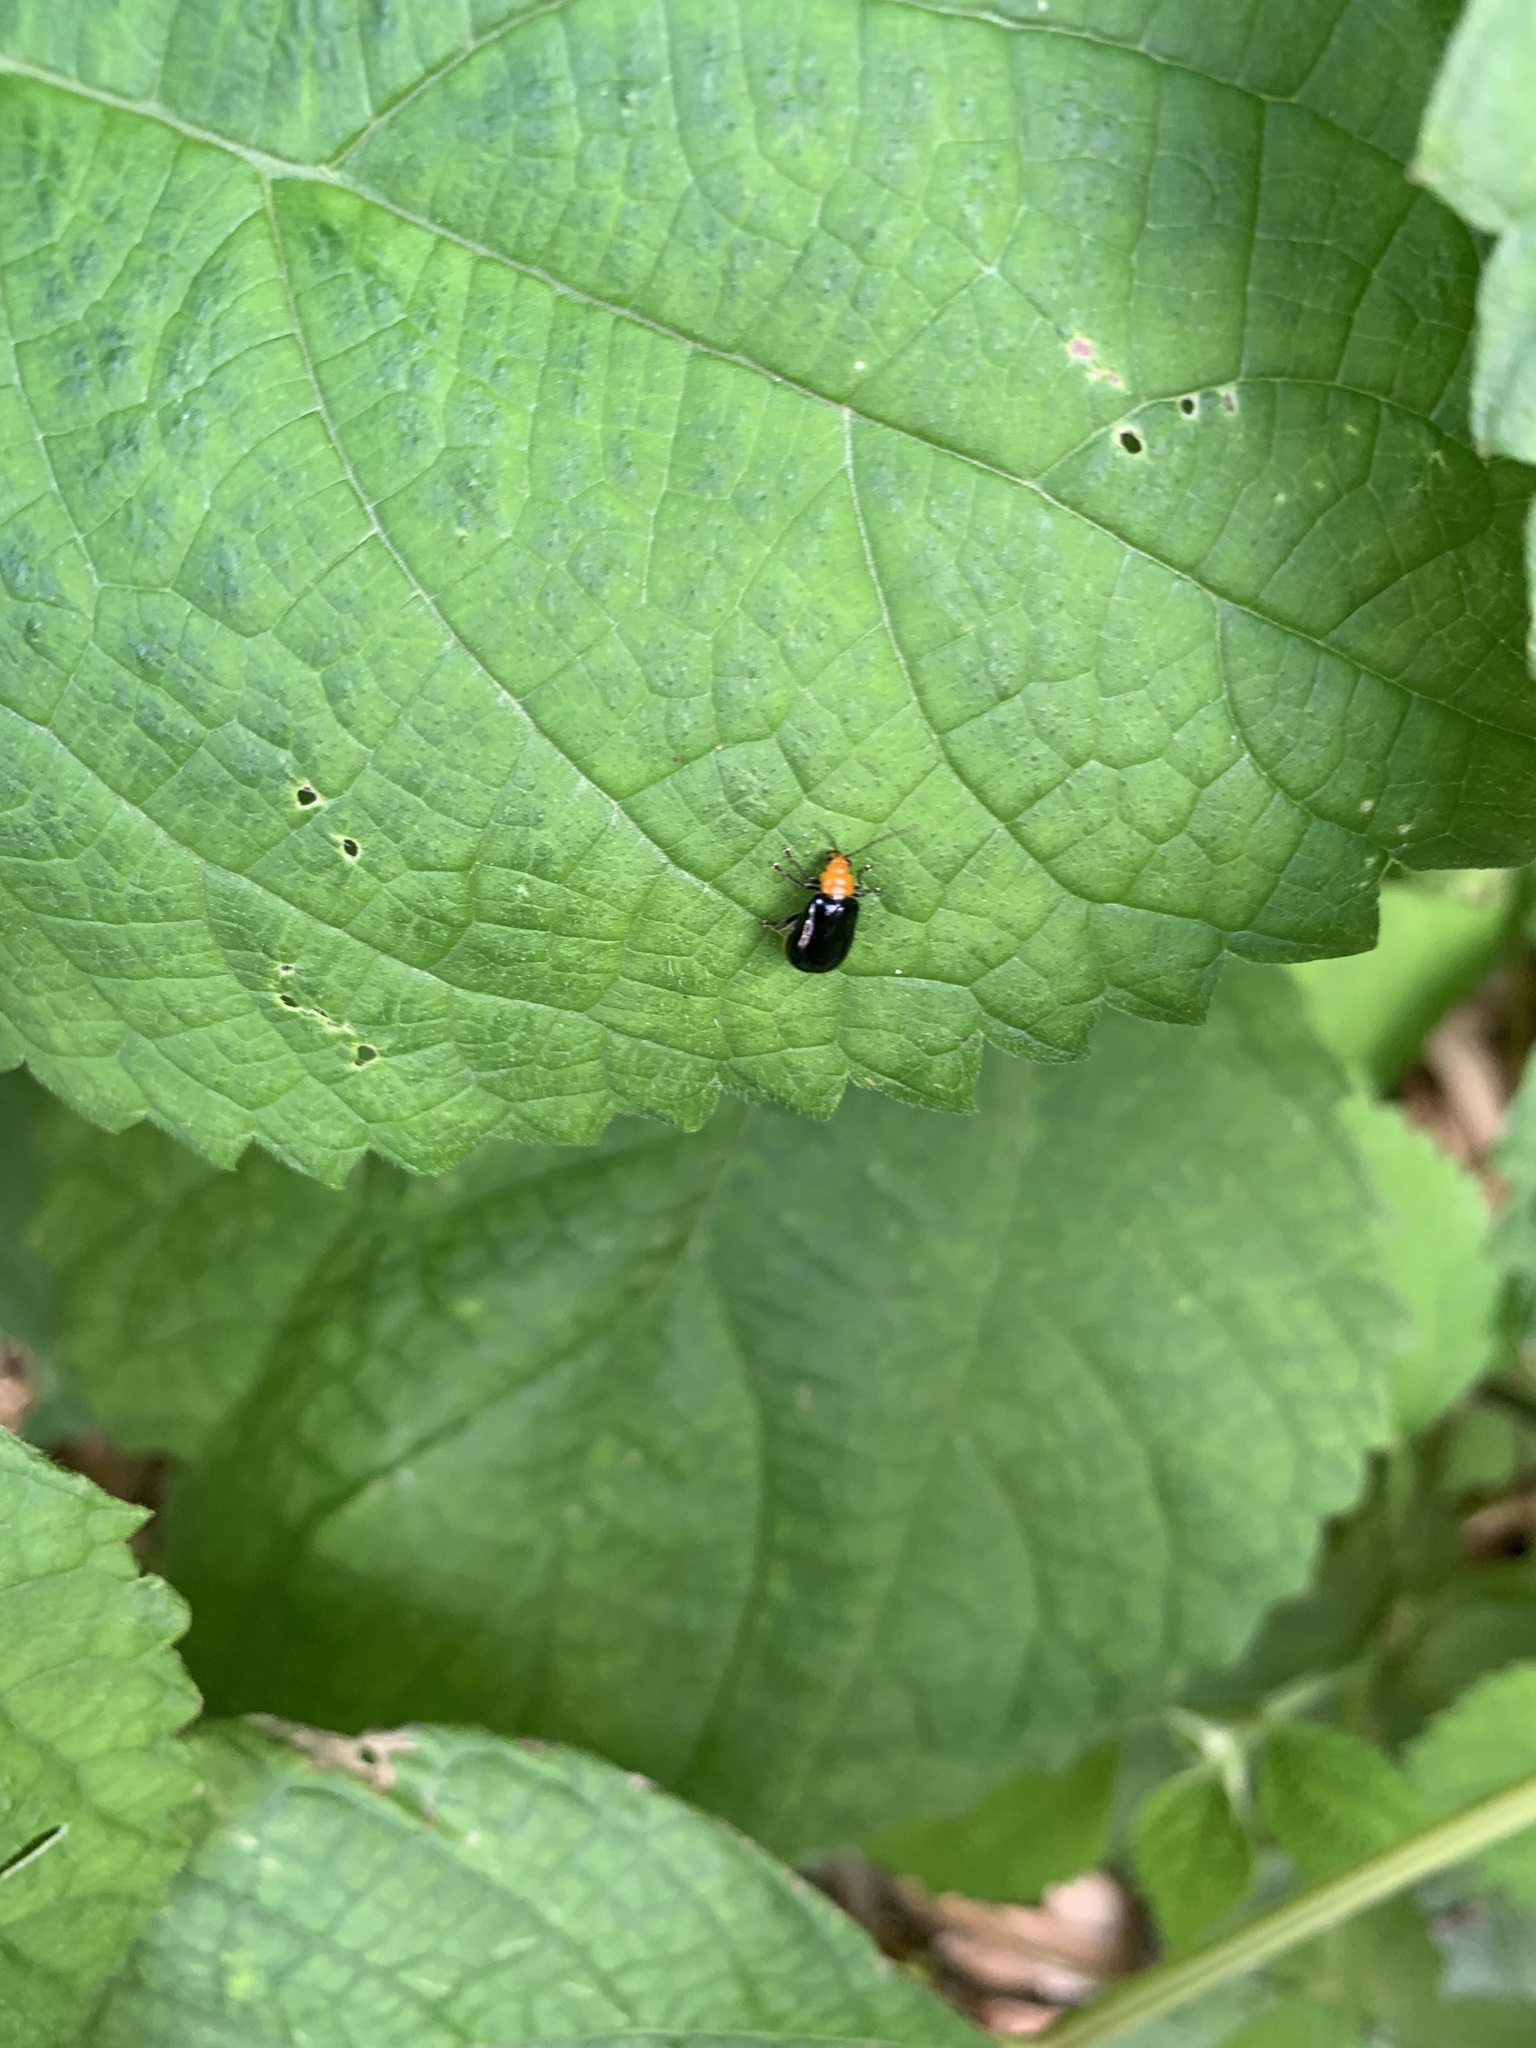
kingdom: Animalia
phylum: Arthropoda
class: Insecta
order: Coleoptera
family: Chrysomelidae
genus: Aulacophora
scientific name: Aulacophora nigripennis
